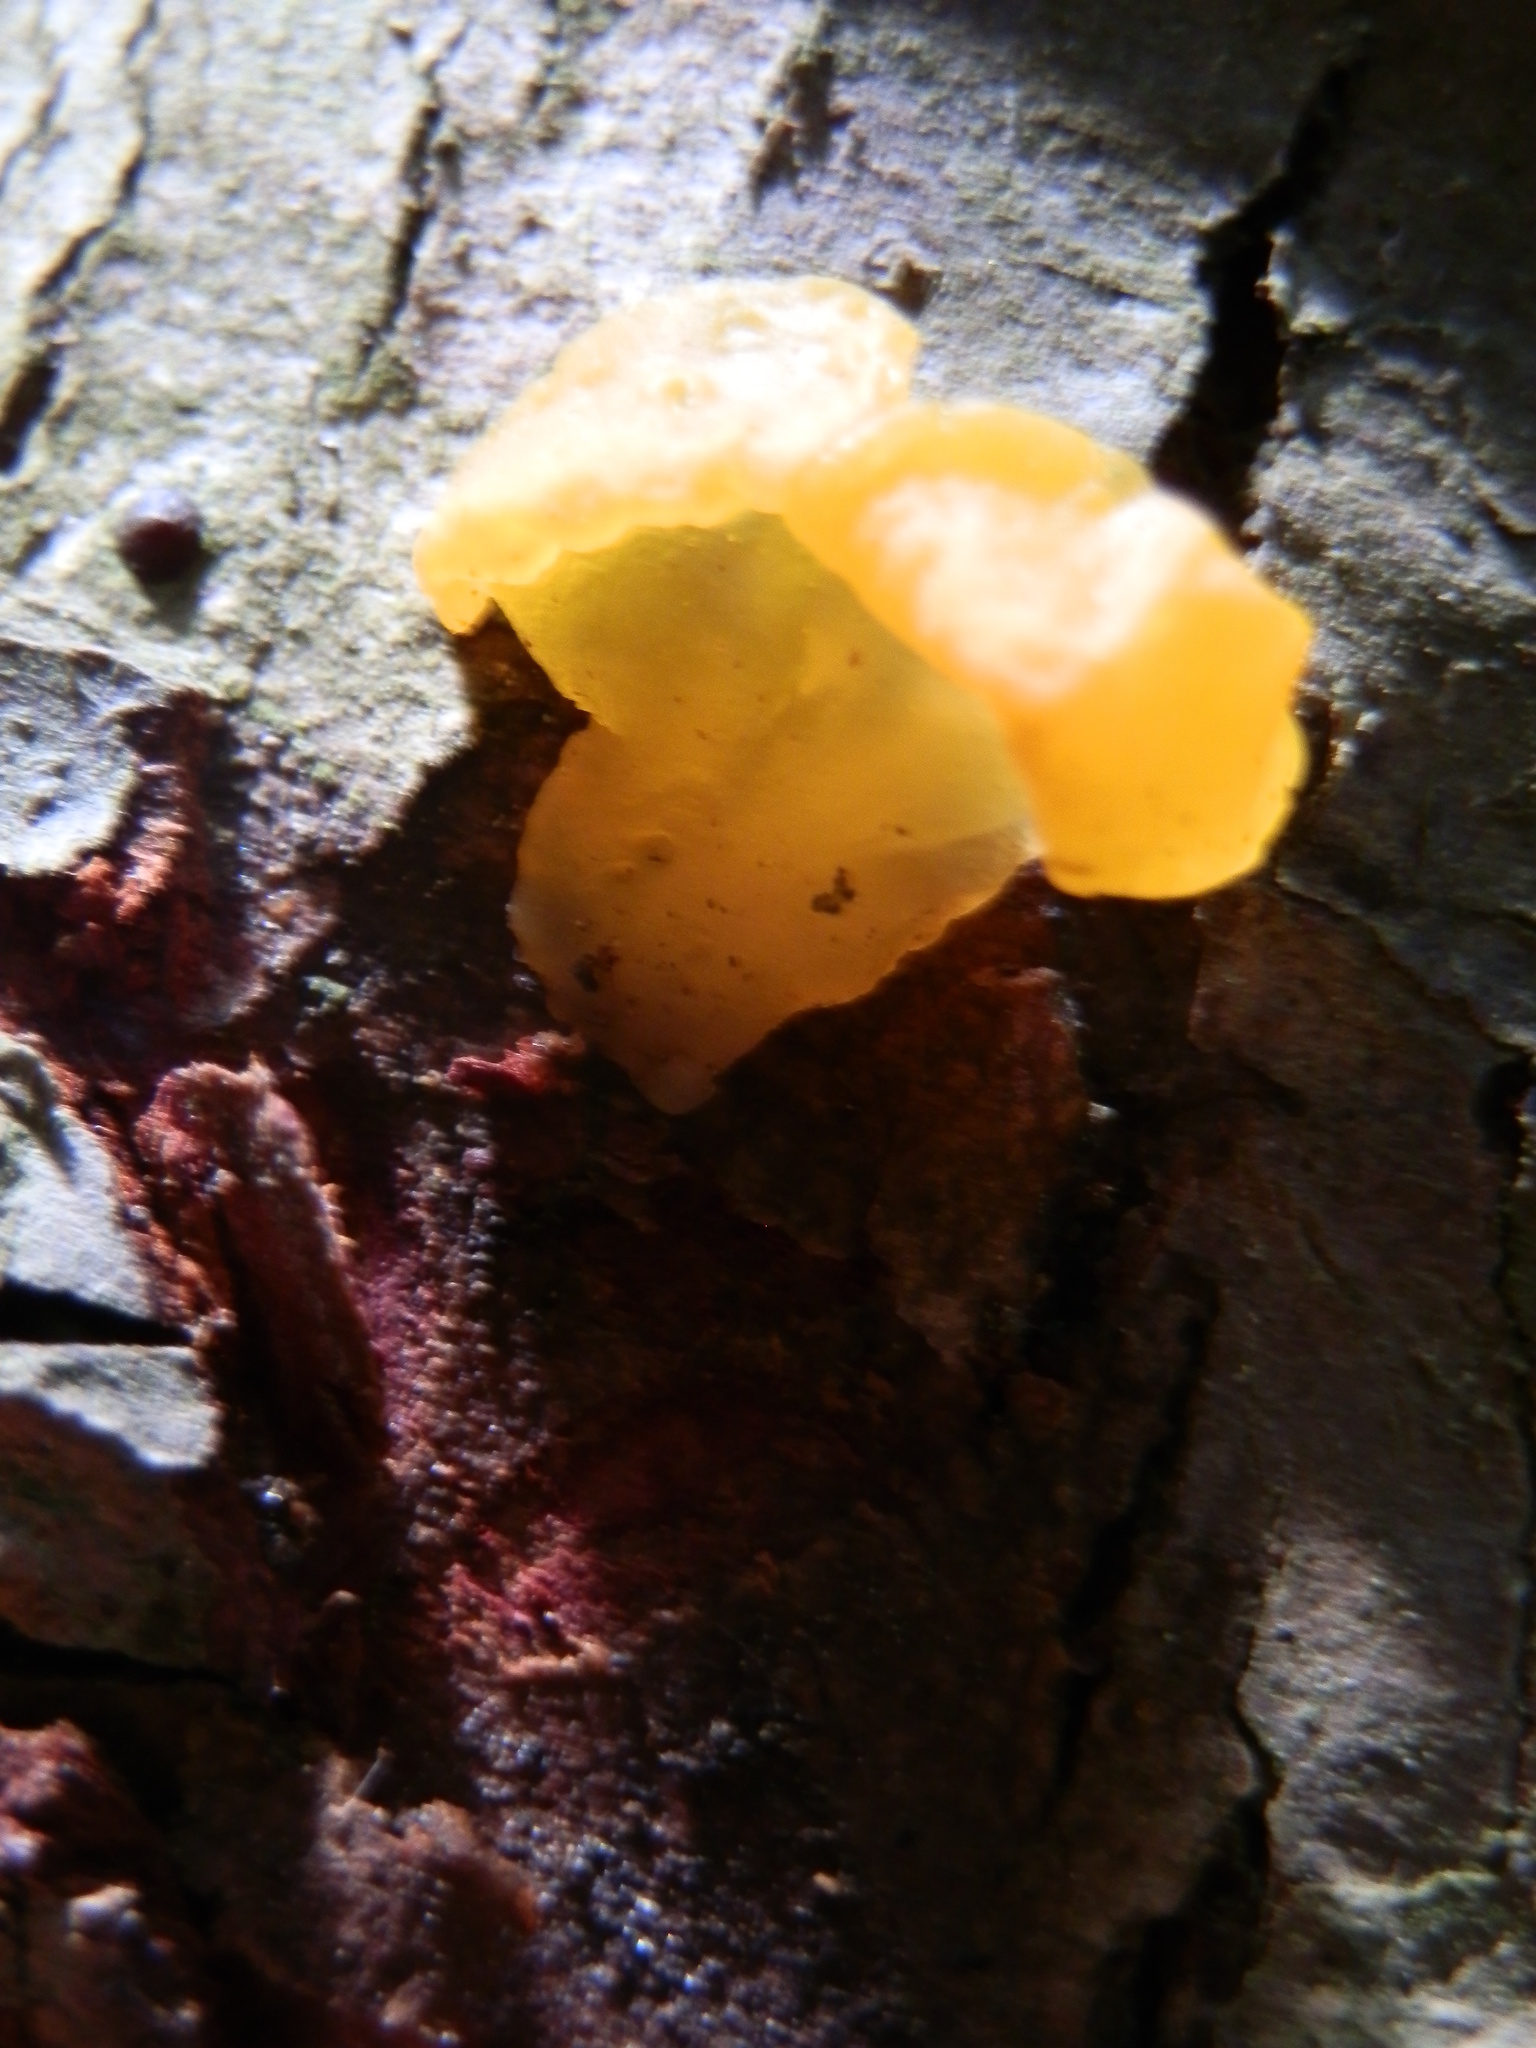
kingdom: Fungi
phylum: Basidiomycota
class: Dacrymycetes
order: Dacrymycetales
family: Dacrymycetaceae
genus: Dacrymyces
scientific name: Dacrymyces chrysospermus
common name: Orange jelly spot
